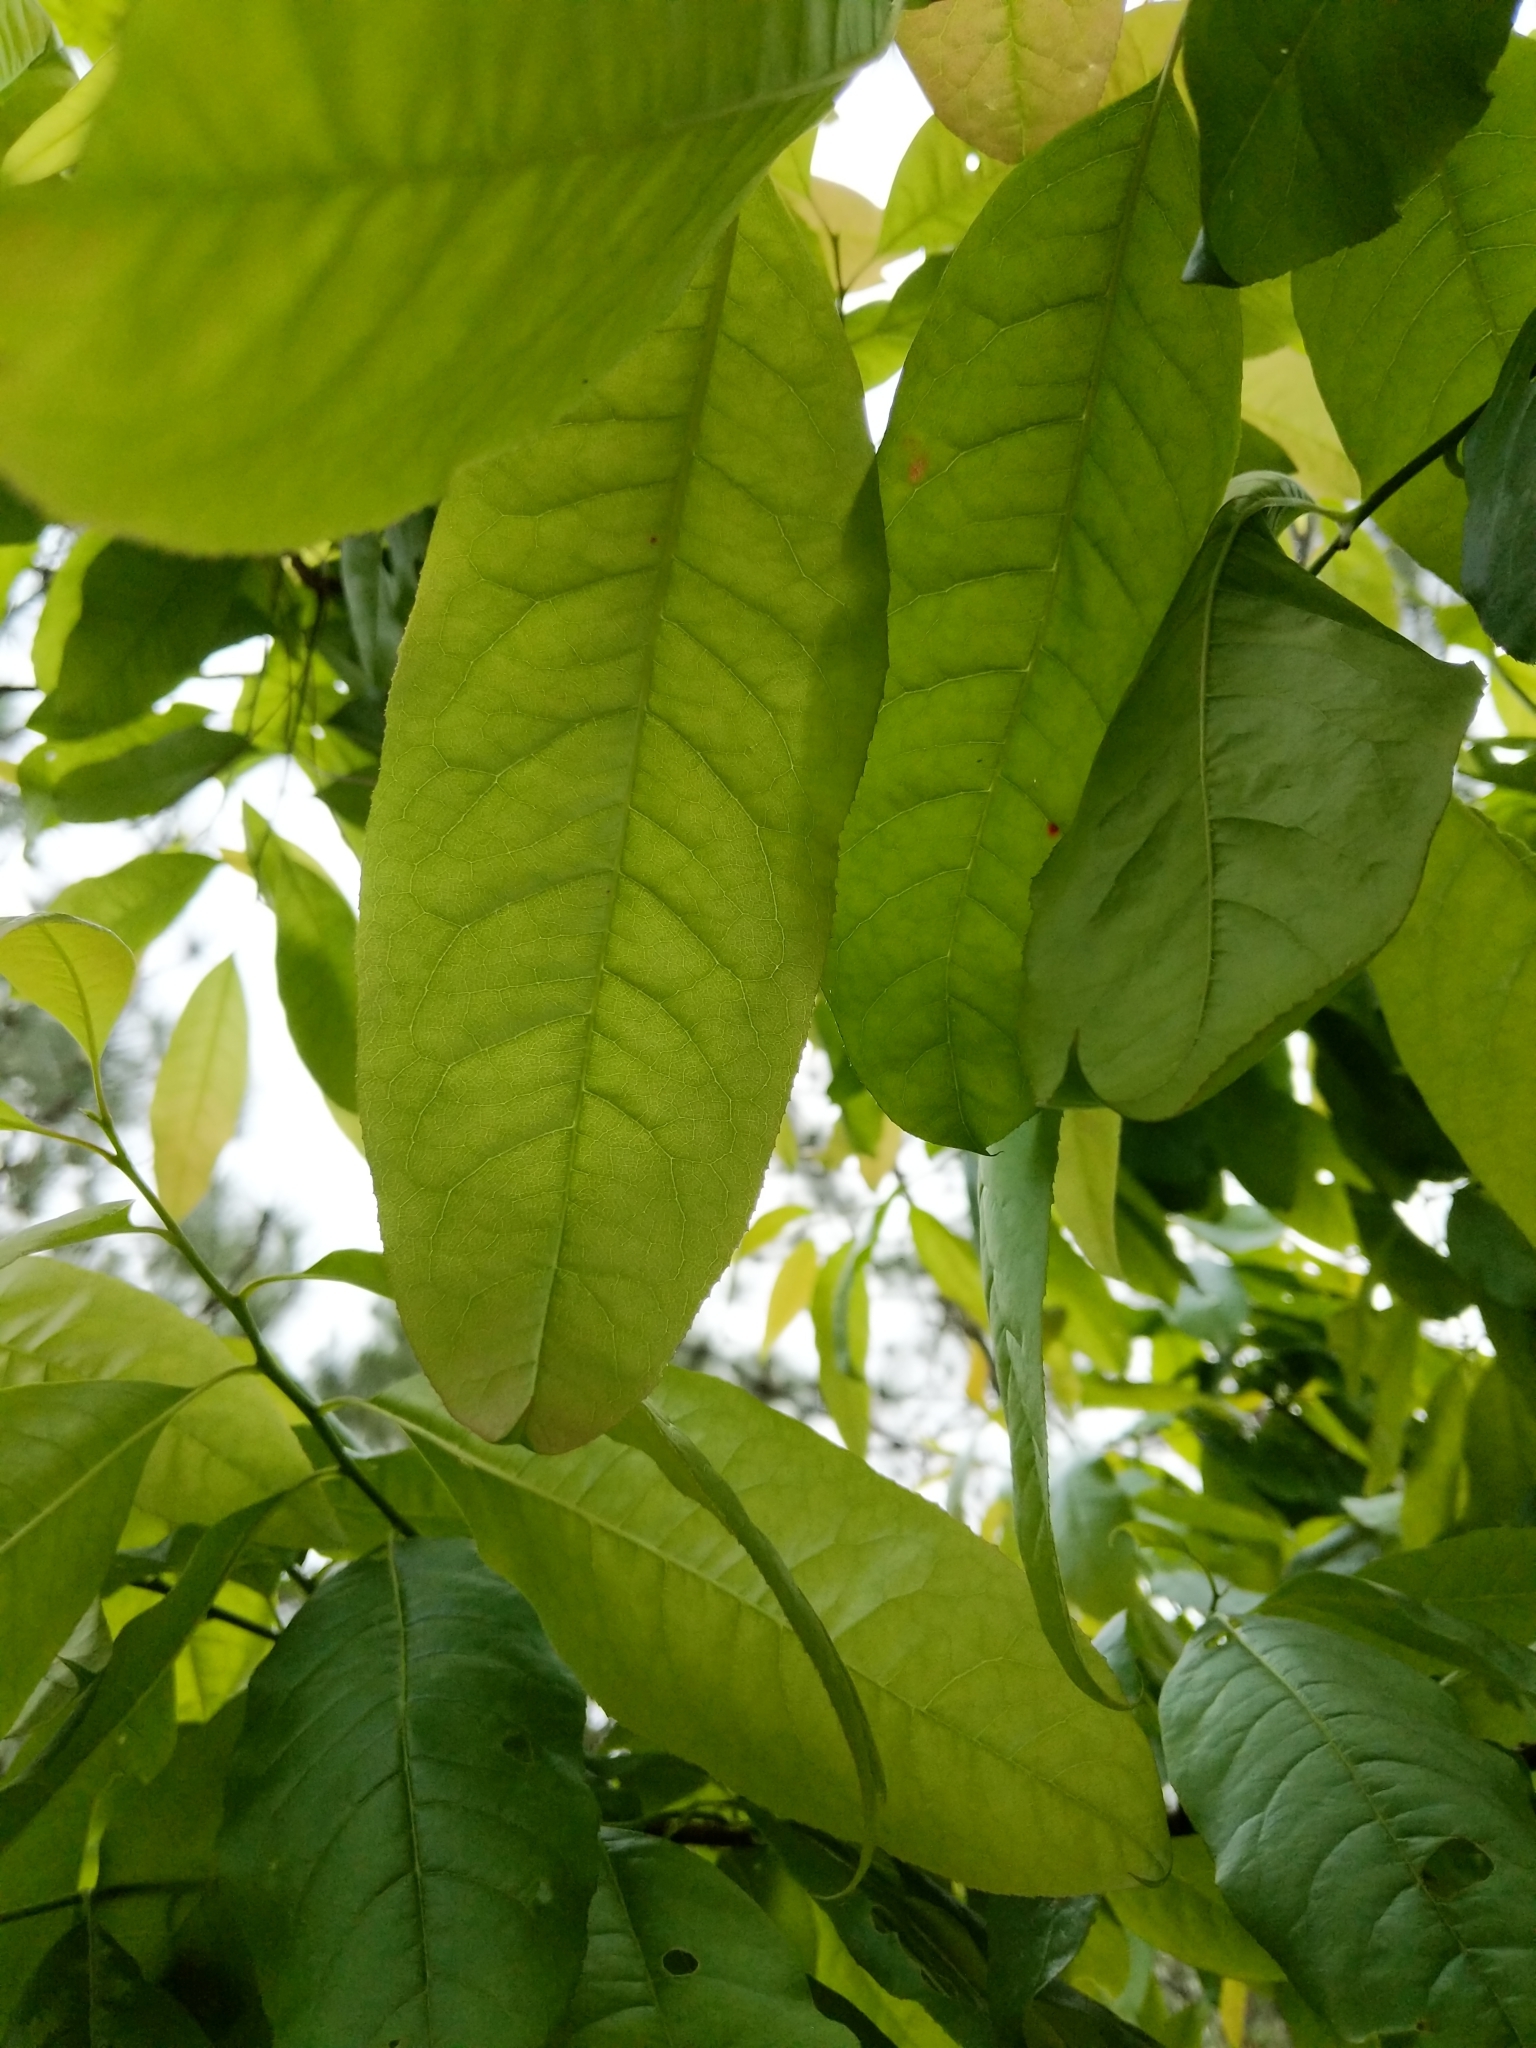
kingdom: Plantae
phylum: Tracheophyta
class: Magnoliopsida
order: Ericales
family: Ericaceae
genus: Oxydendrum
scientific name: Oxydendrum arboreum
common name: Sourwood
